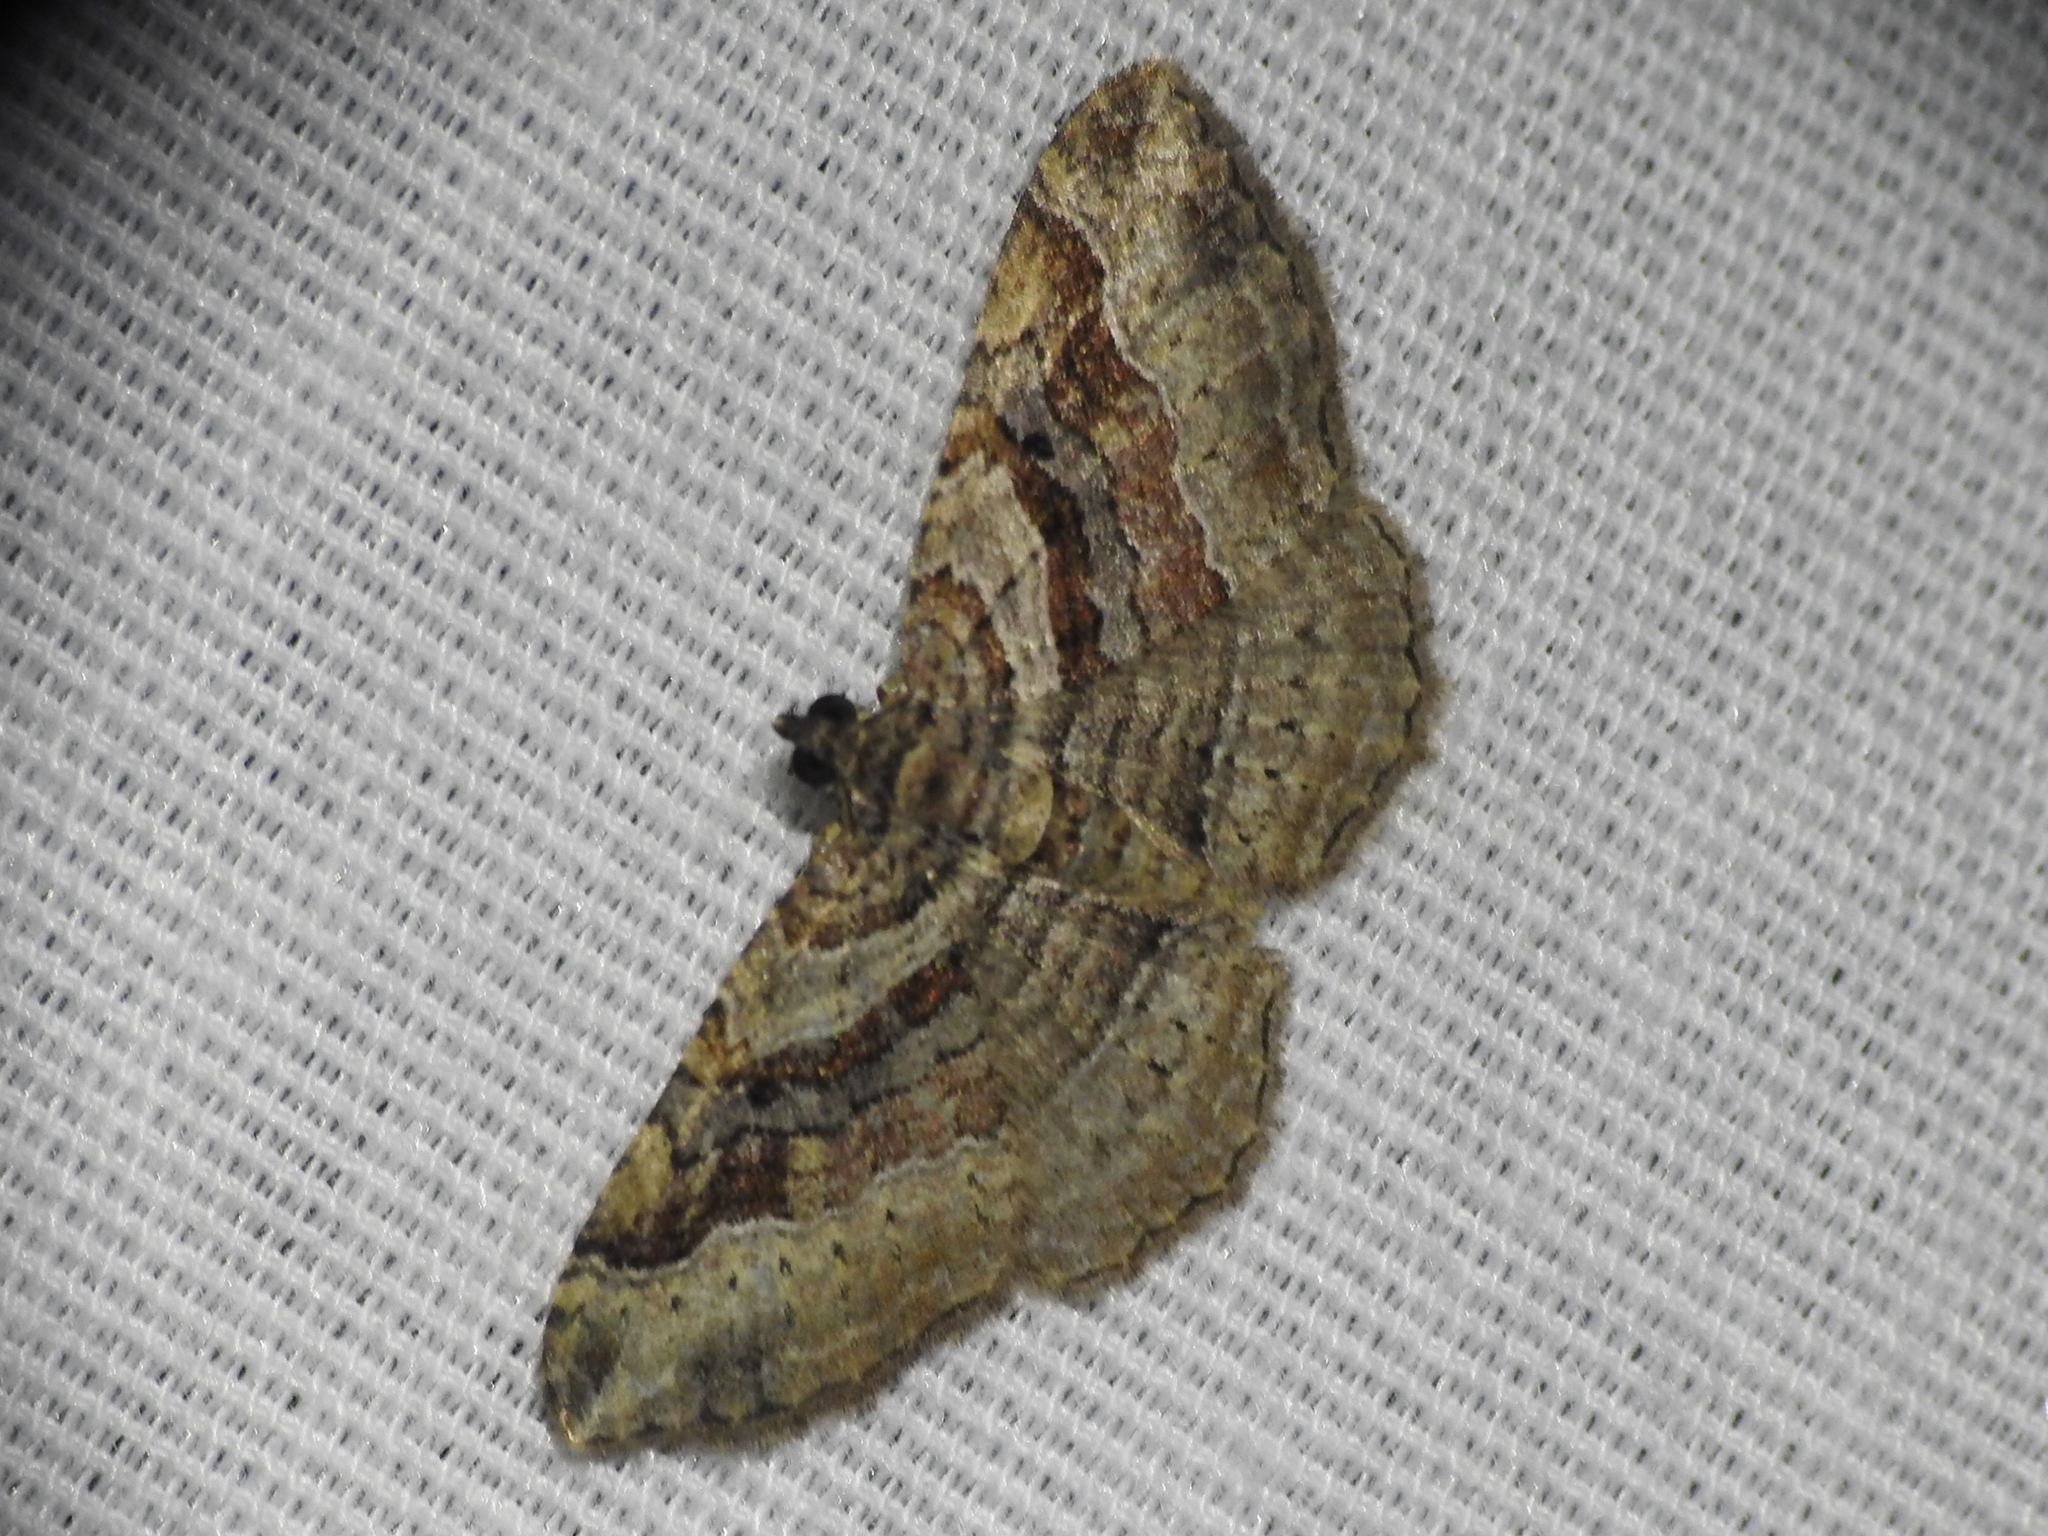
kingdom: Animalia
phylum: Arthropoda
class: Insecta
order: Lepidoptera
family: Geometridae
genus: Costaconvexa
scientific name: Costaconvexa centrostrigaria
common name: Bent-line carpet
